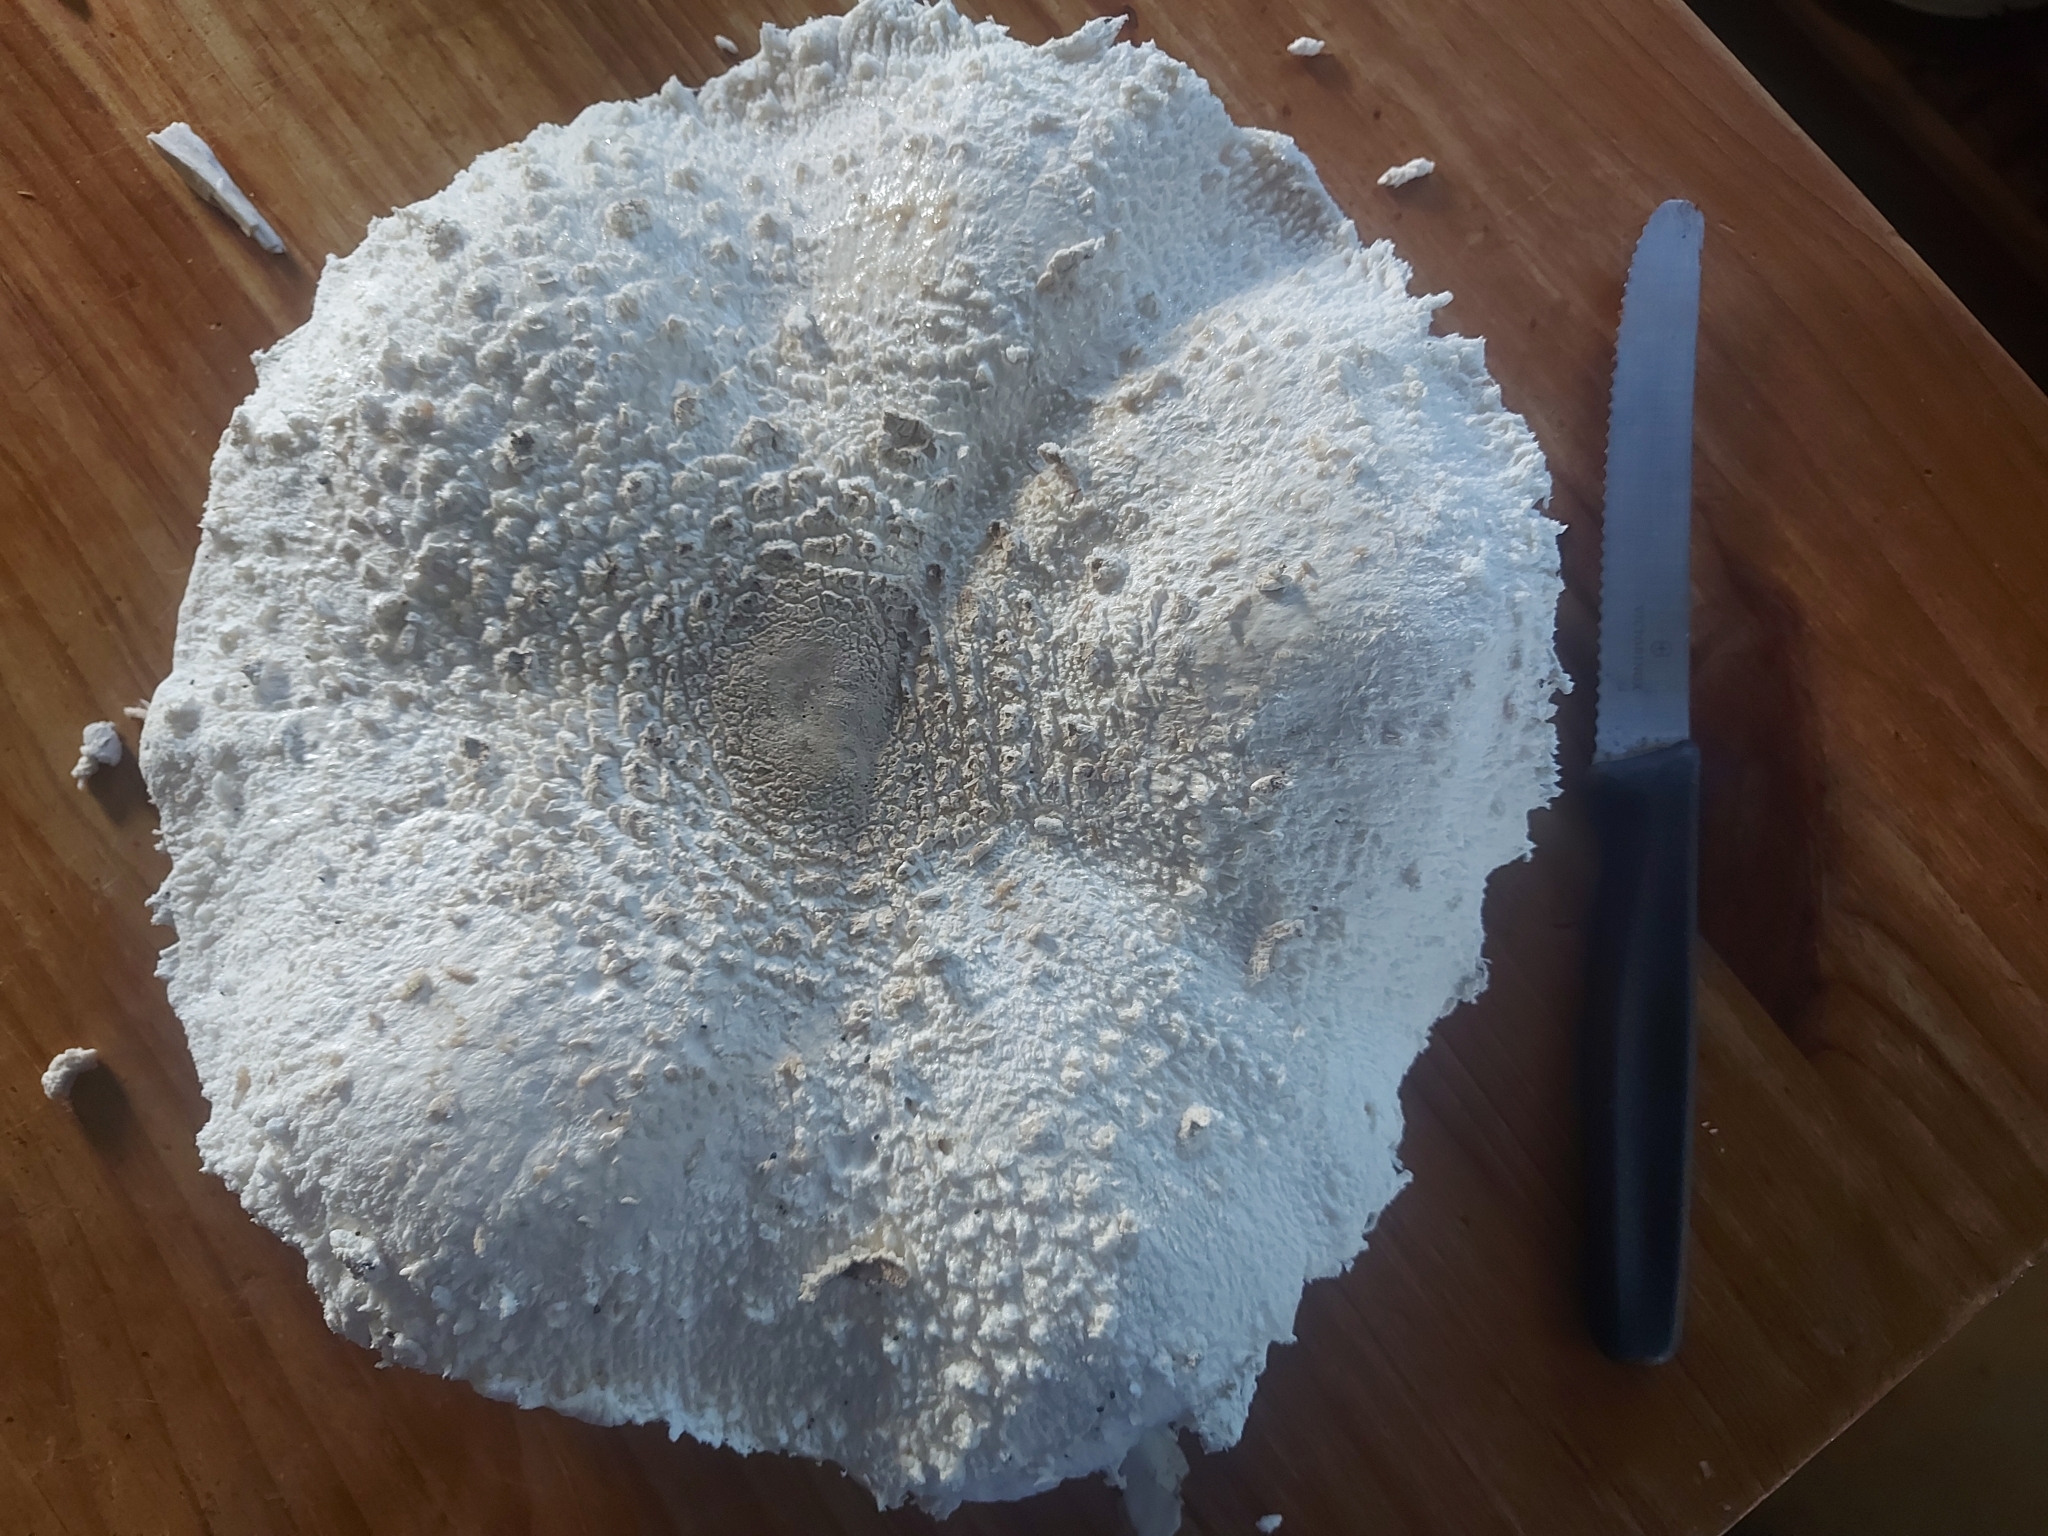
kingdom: Fungi
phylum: Basidiomycota
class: Agaricomycetes
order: Agaricales
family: Agaricaceae
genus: Macrolepiota
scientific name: Macrolepiota zeyheri
